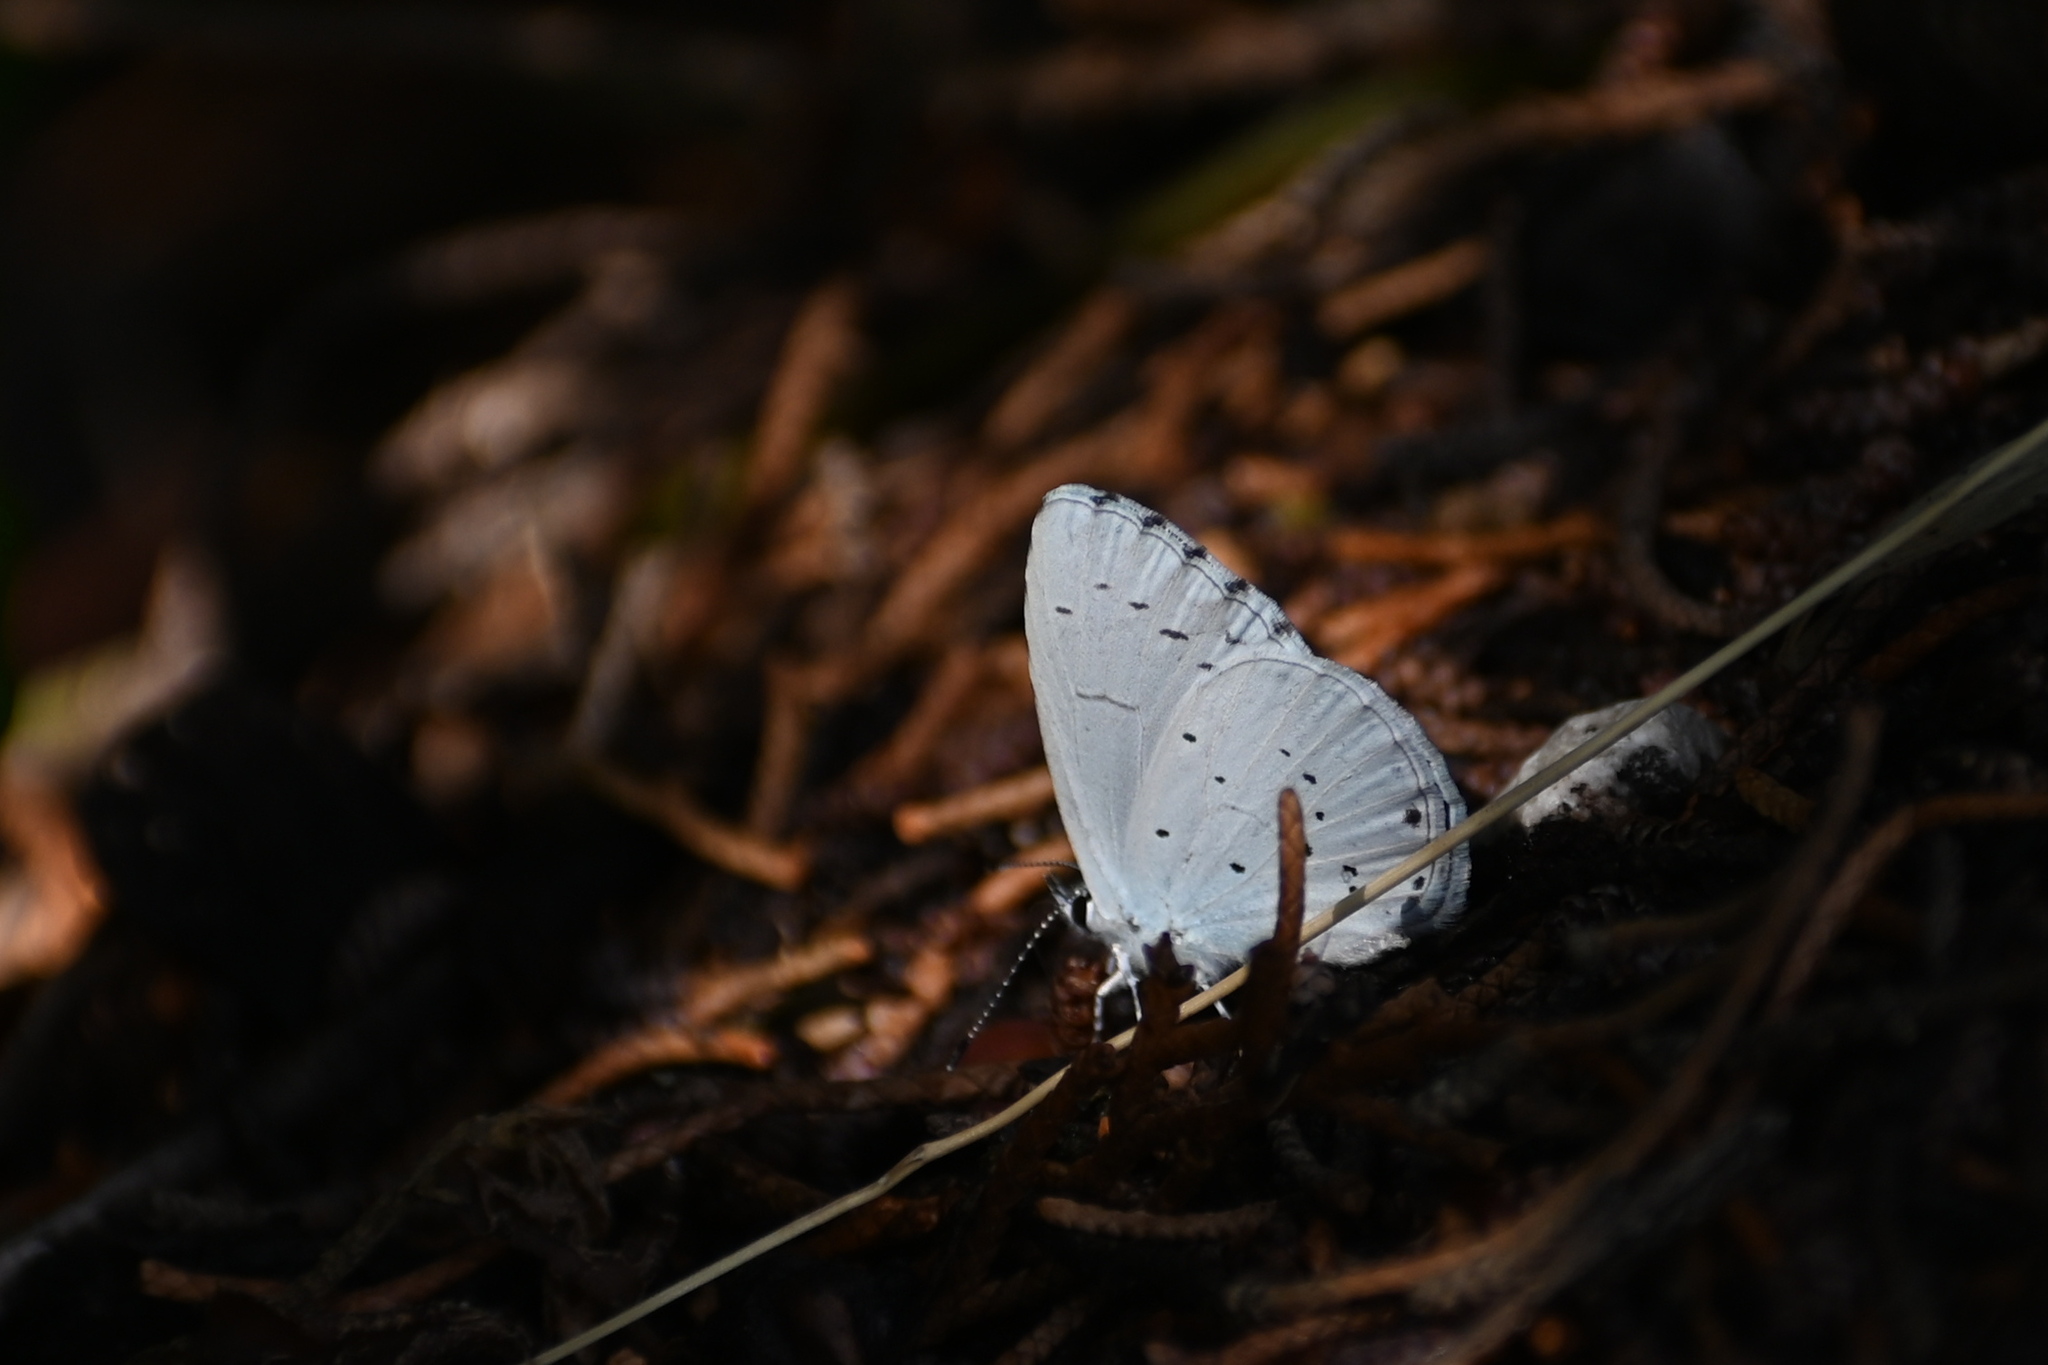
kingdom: Animalia
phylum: Arthropoda
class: Insecta
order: Lepidoptera
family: Lycaenidae
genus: Celastrina
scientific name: Celastrina argiolus
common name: Holly blue
